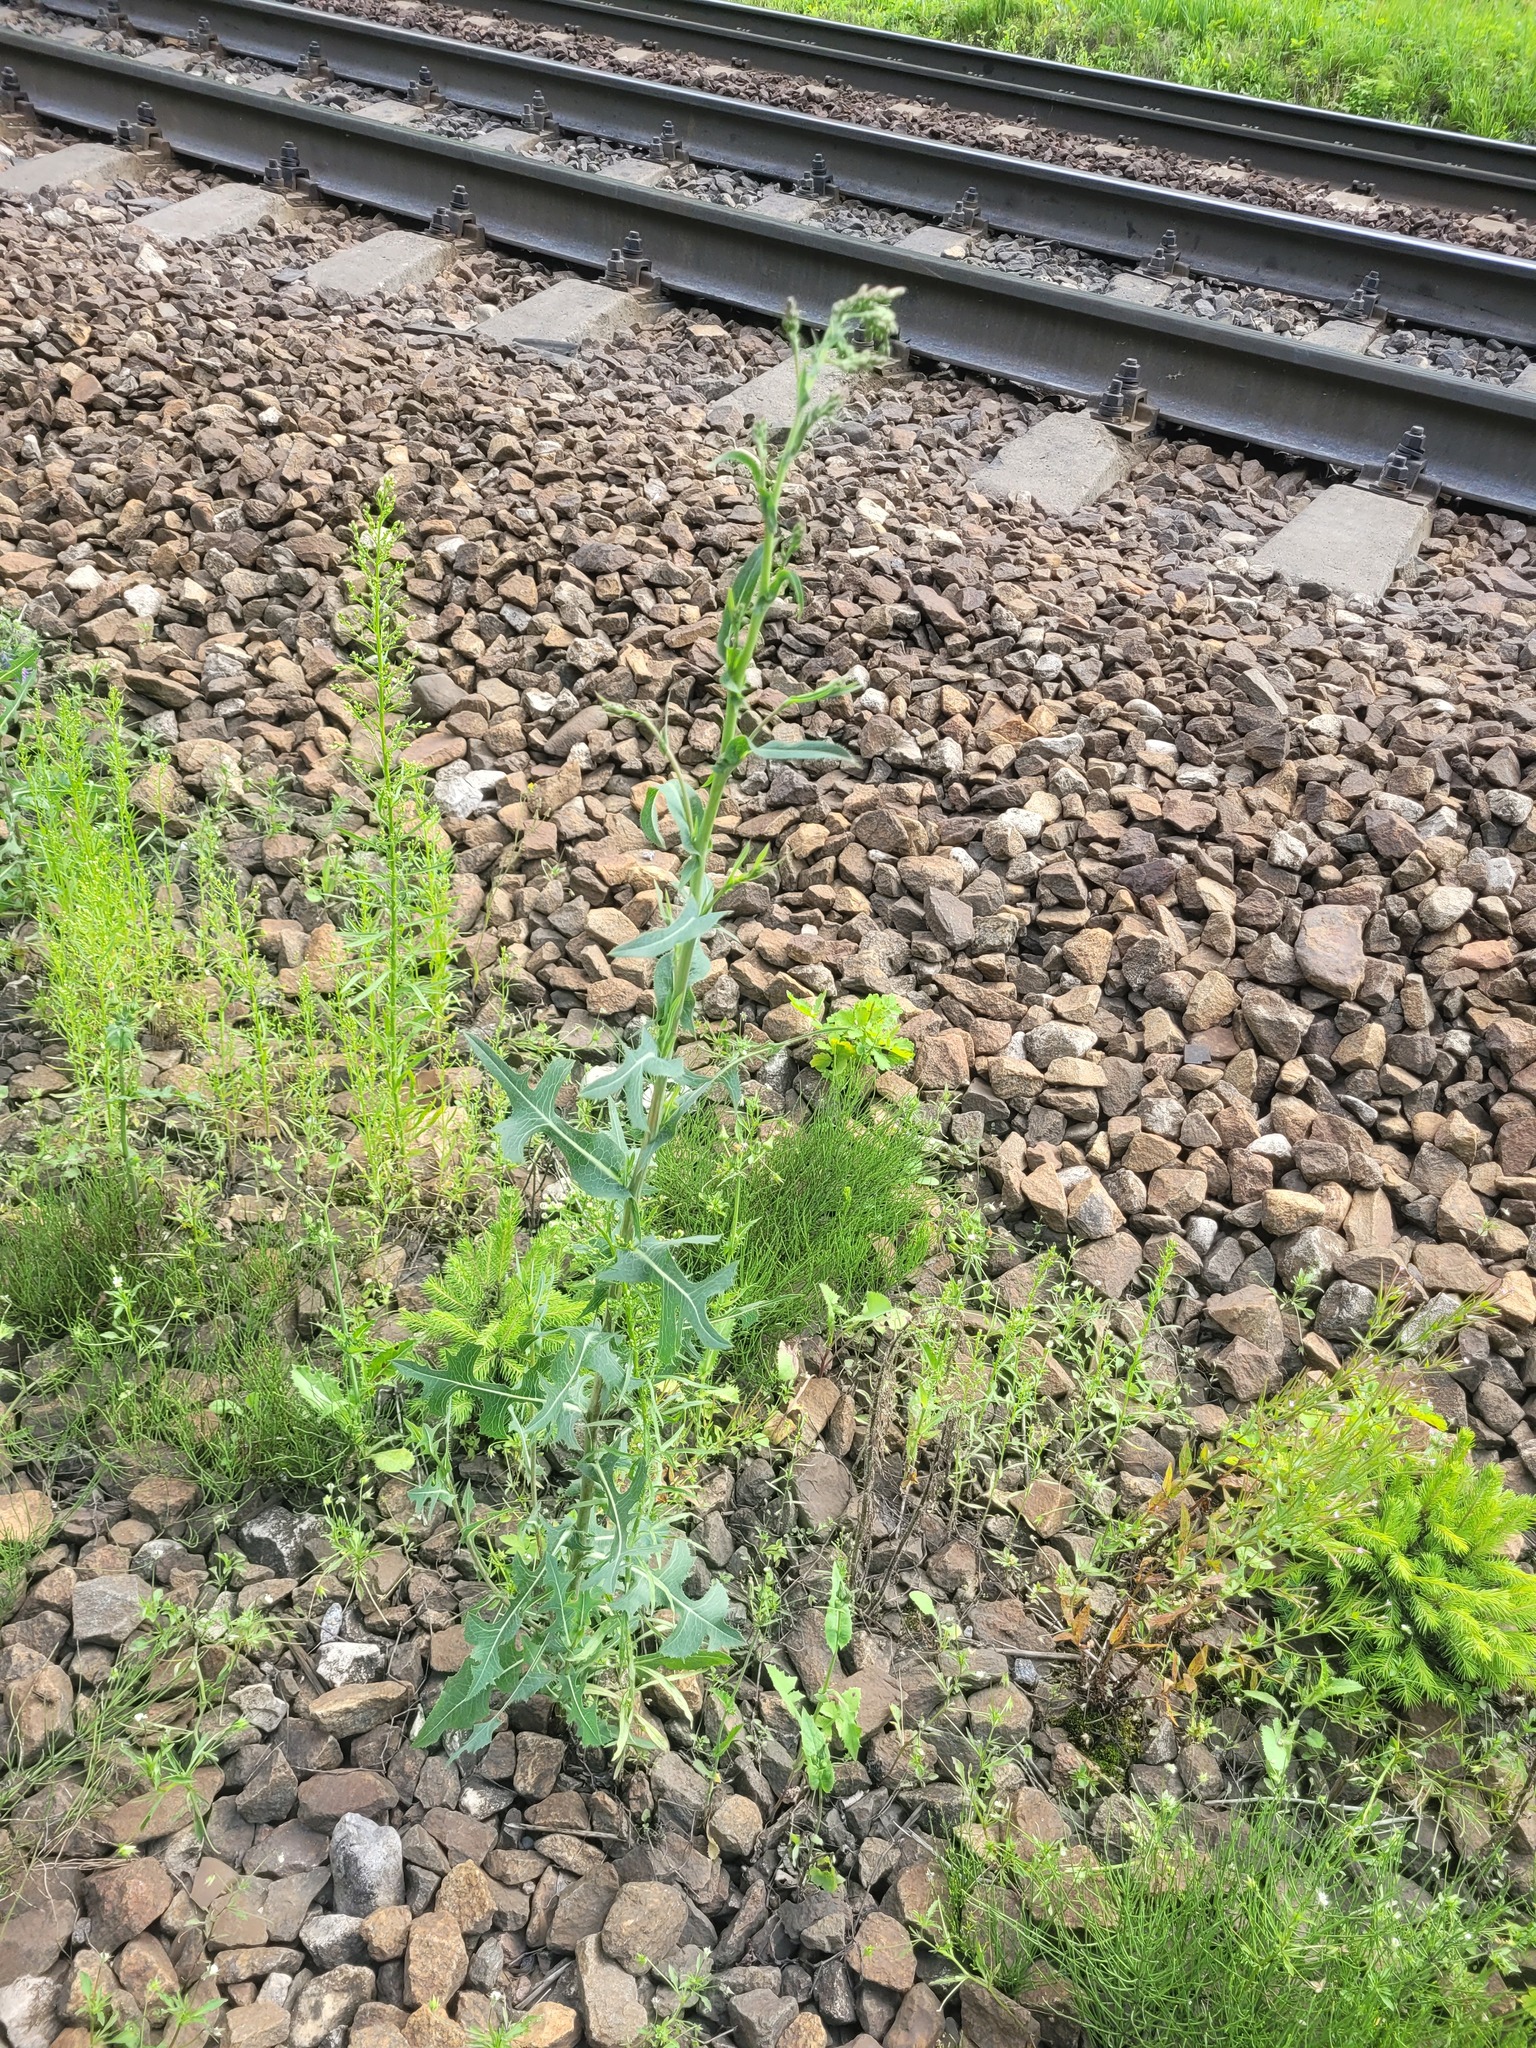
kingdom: Plantae
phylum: Tracheophyta
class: Magnoliopsida
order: Asterales
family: Asteraceae
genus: Lactuca
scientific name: Lactuca serriola
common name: Prickly lettuce
